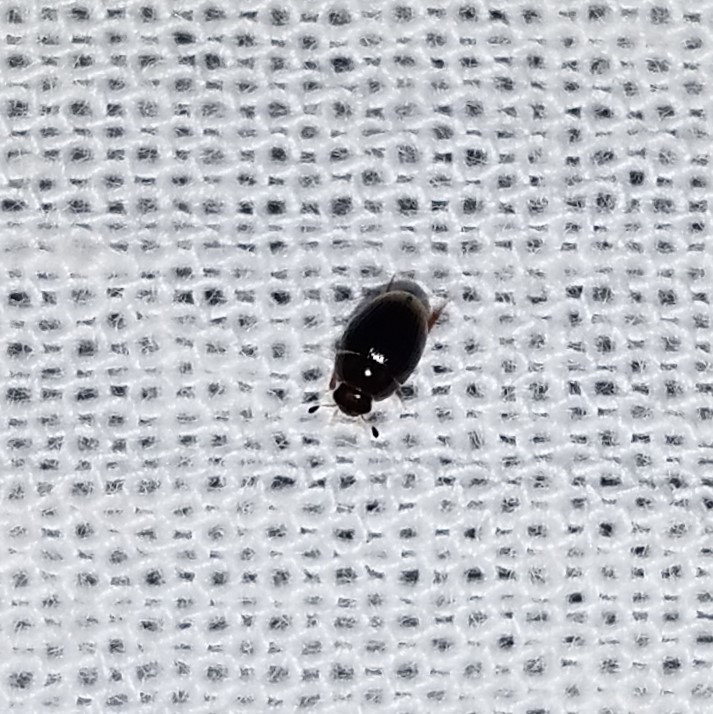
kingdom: Animalia
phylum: Arthropoda
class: Insecta
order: Coleoptera
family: Hydrophilidae
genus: Cercyon
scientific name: Cercyon
